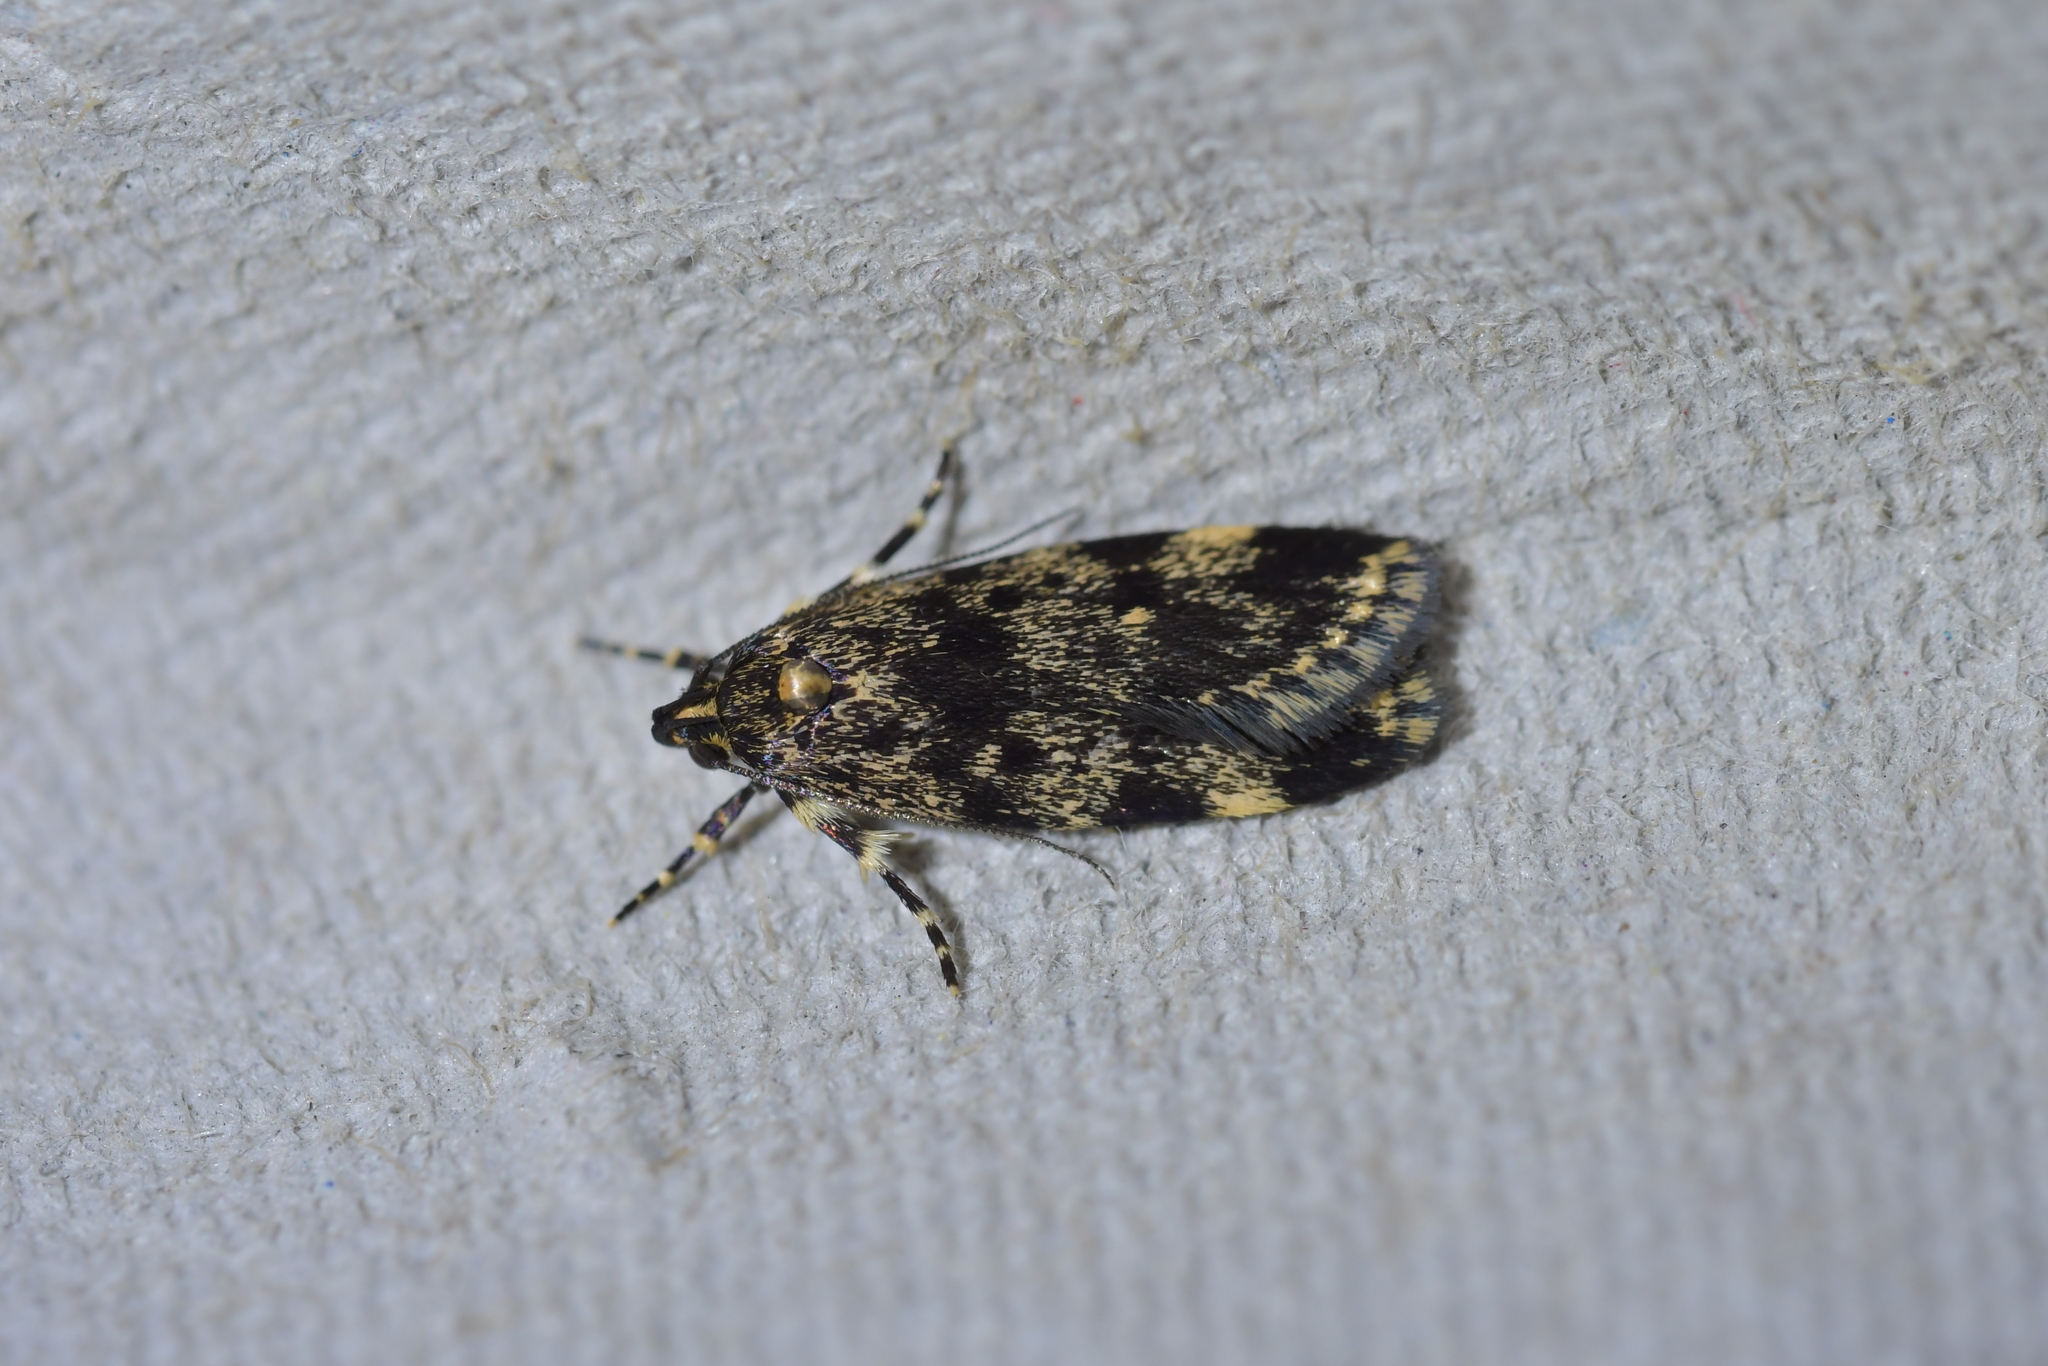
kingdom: Animalia
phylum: Arthropoda
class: Insecta
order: Lepidoptera
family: Oecophoridae
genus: Barea
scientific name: Barea codrella
